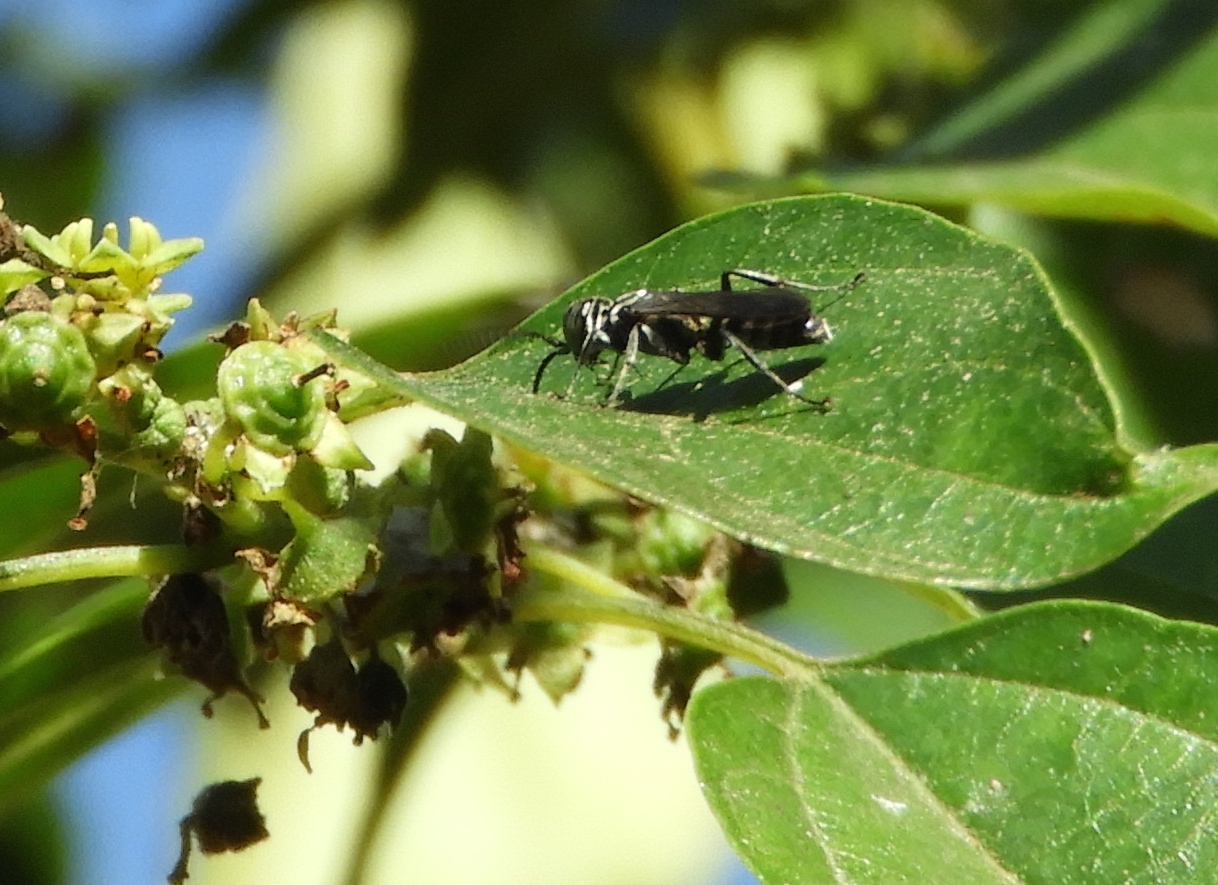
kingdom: Animalia
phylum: Arthropoda
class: Insecta
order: Hymenoptera
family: Crabronidae
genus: Liris
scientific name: Liris
